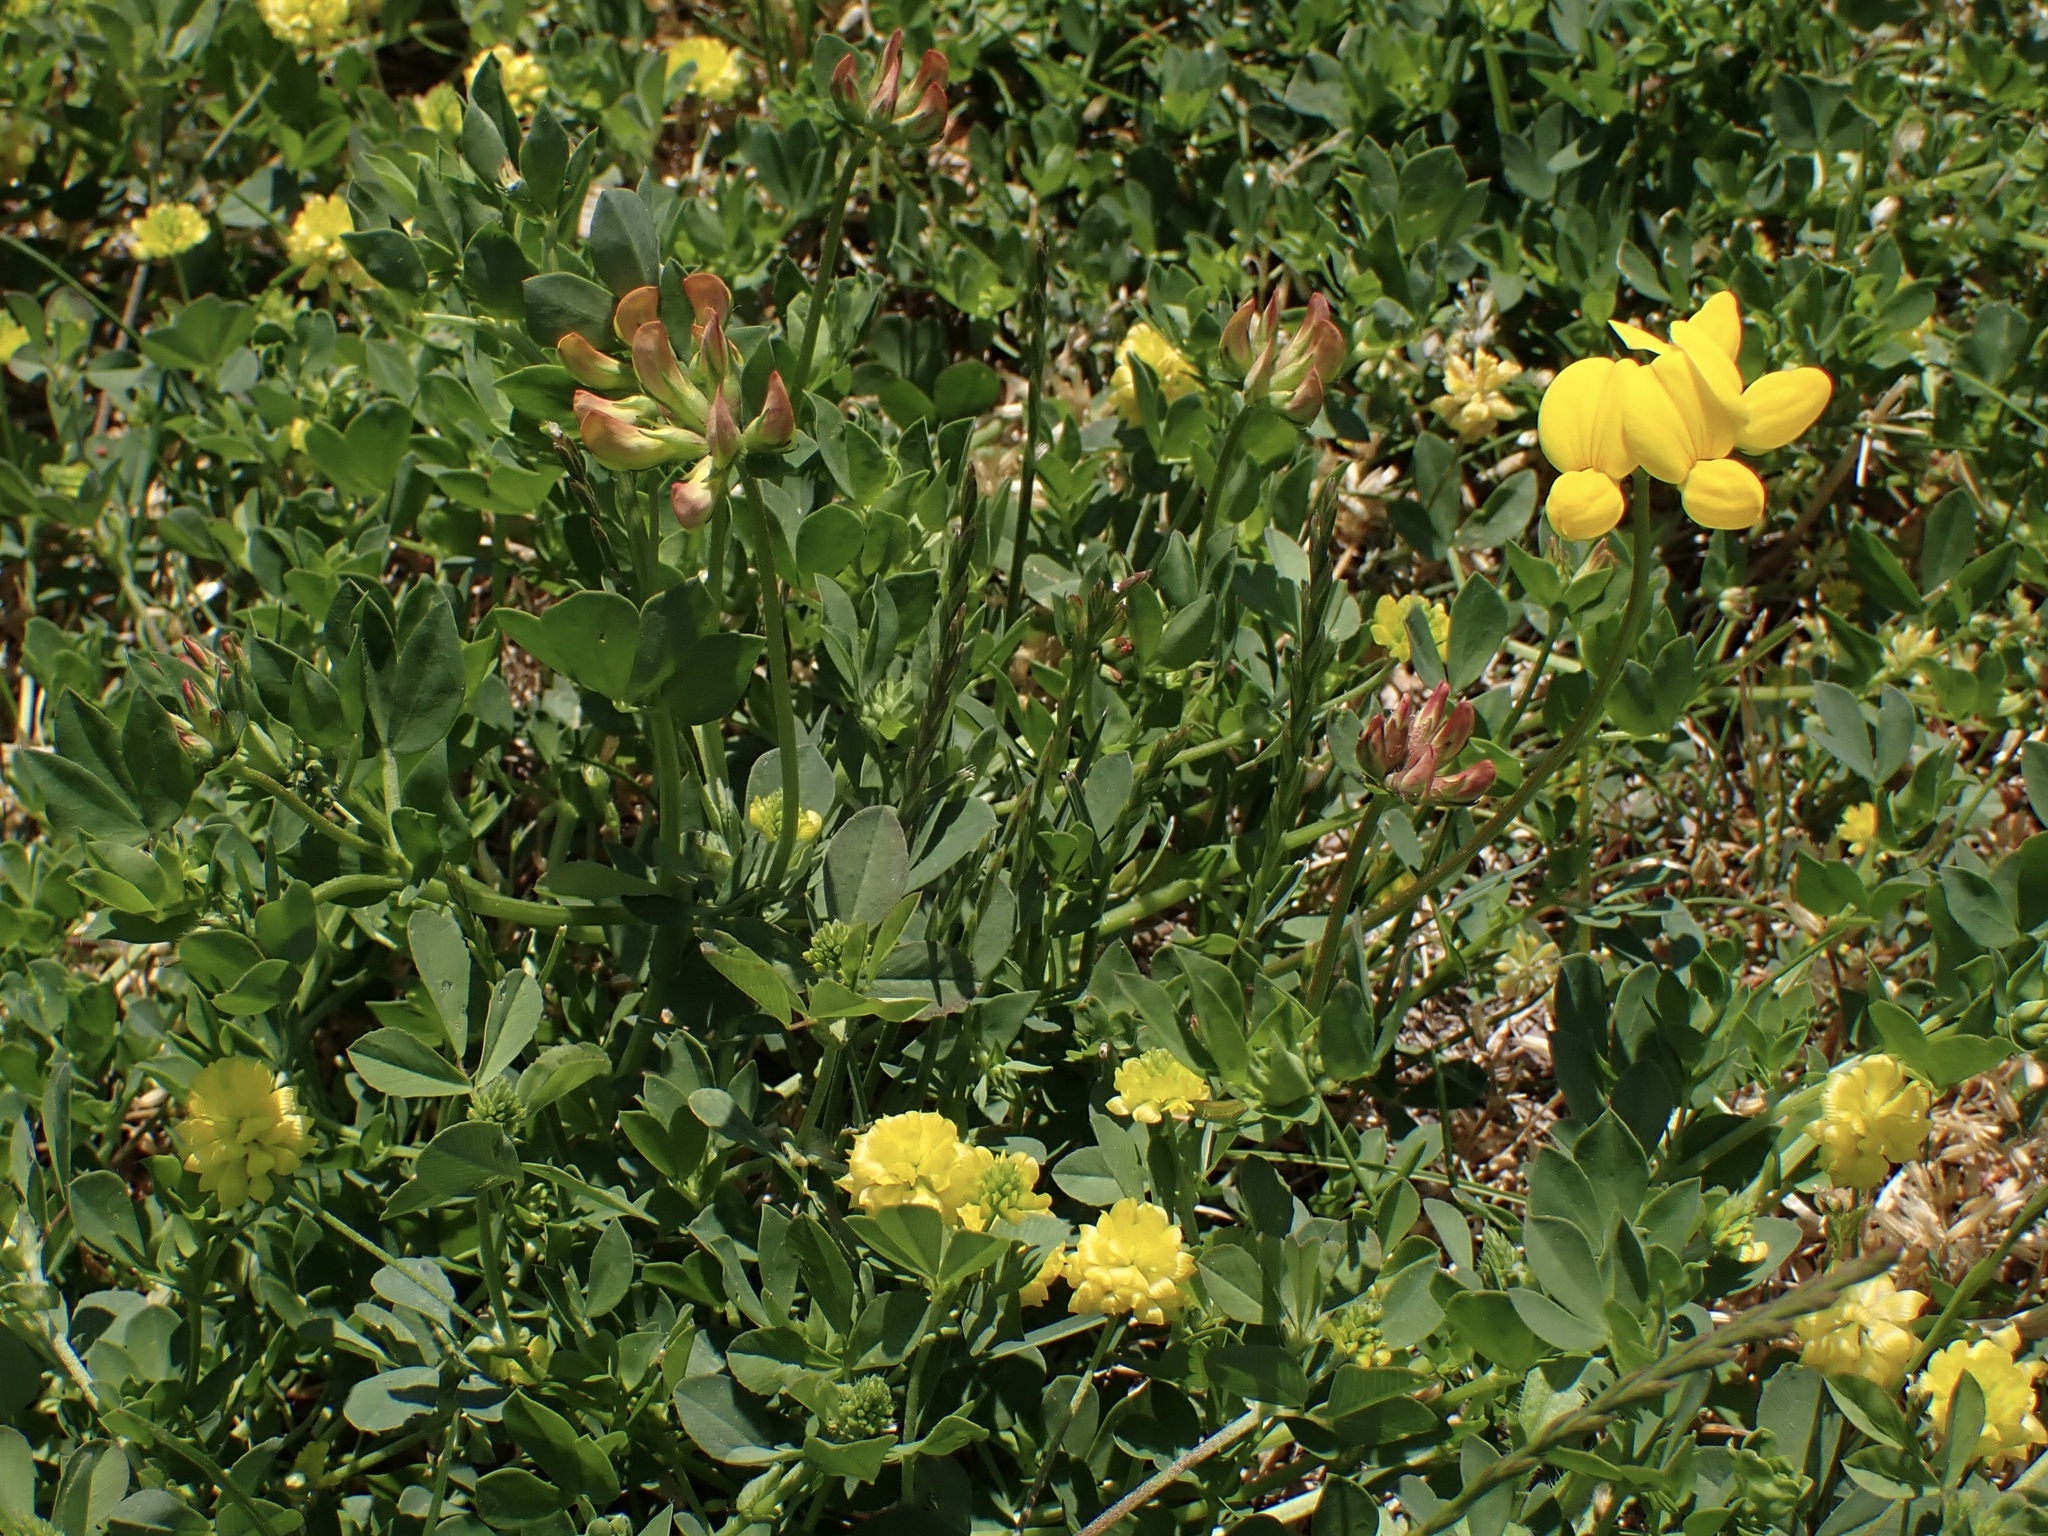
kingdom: Plantae
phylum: Tracheophyta
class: Magnoliopsida
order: Fabales
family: Fabaceae
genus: Lotus
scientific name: Lotus corniculatus
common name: Common bird's-foot-trefoil
